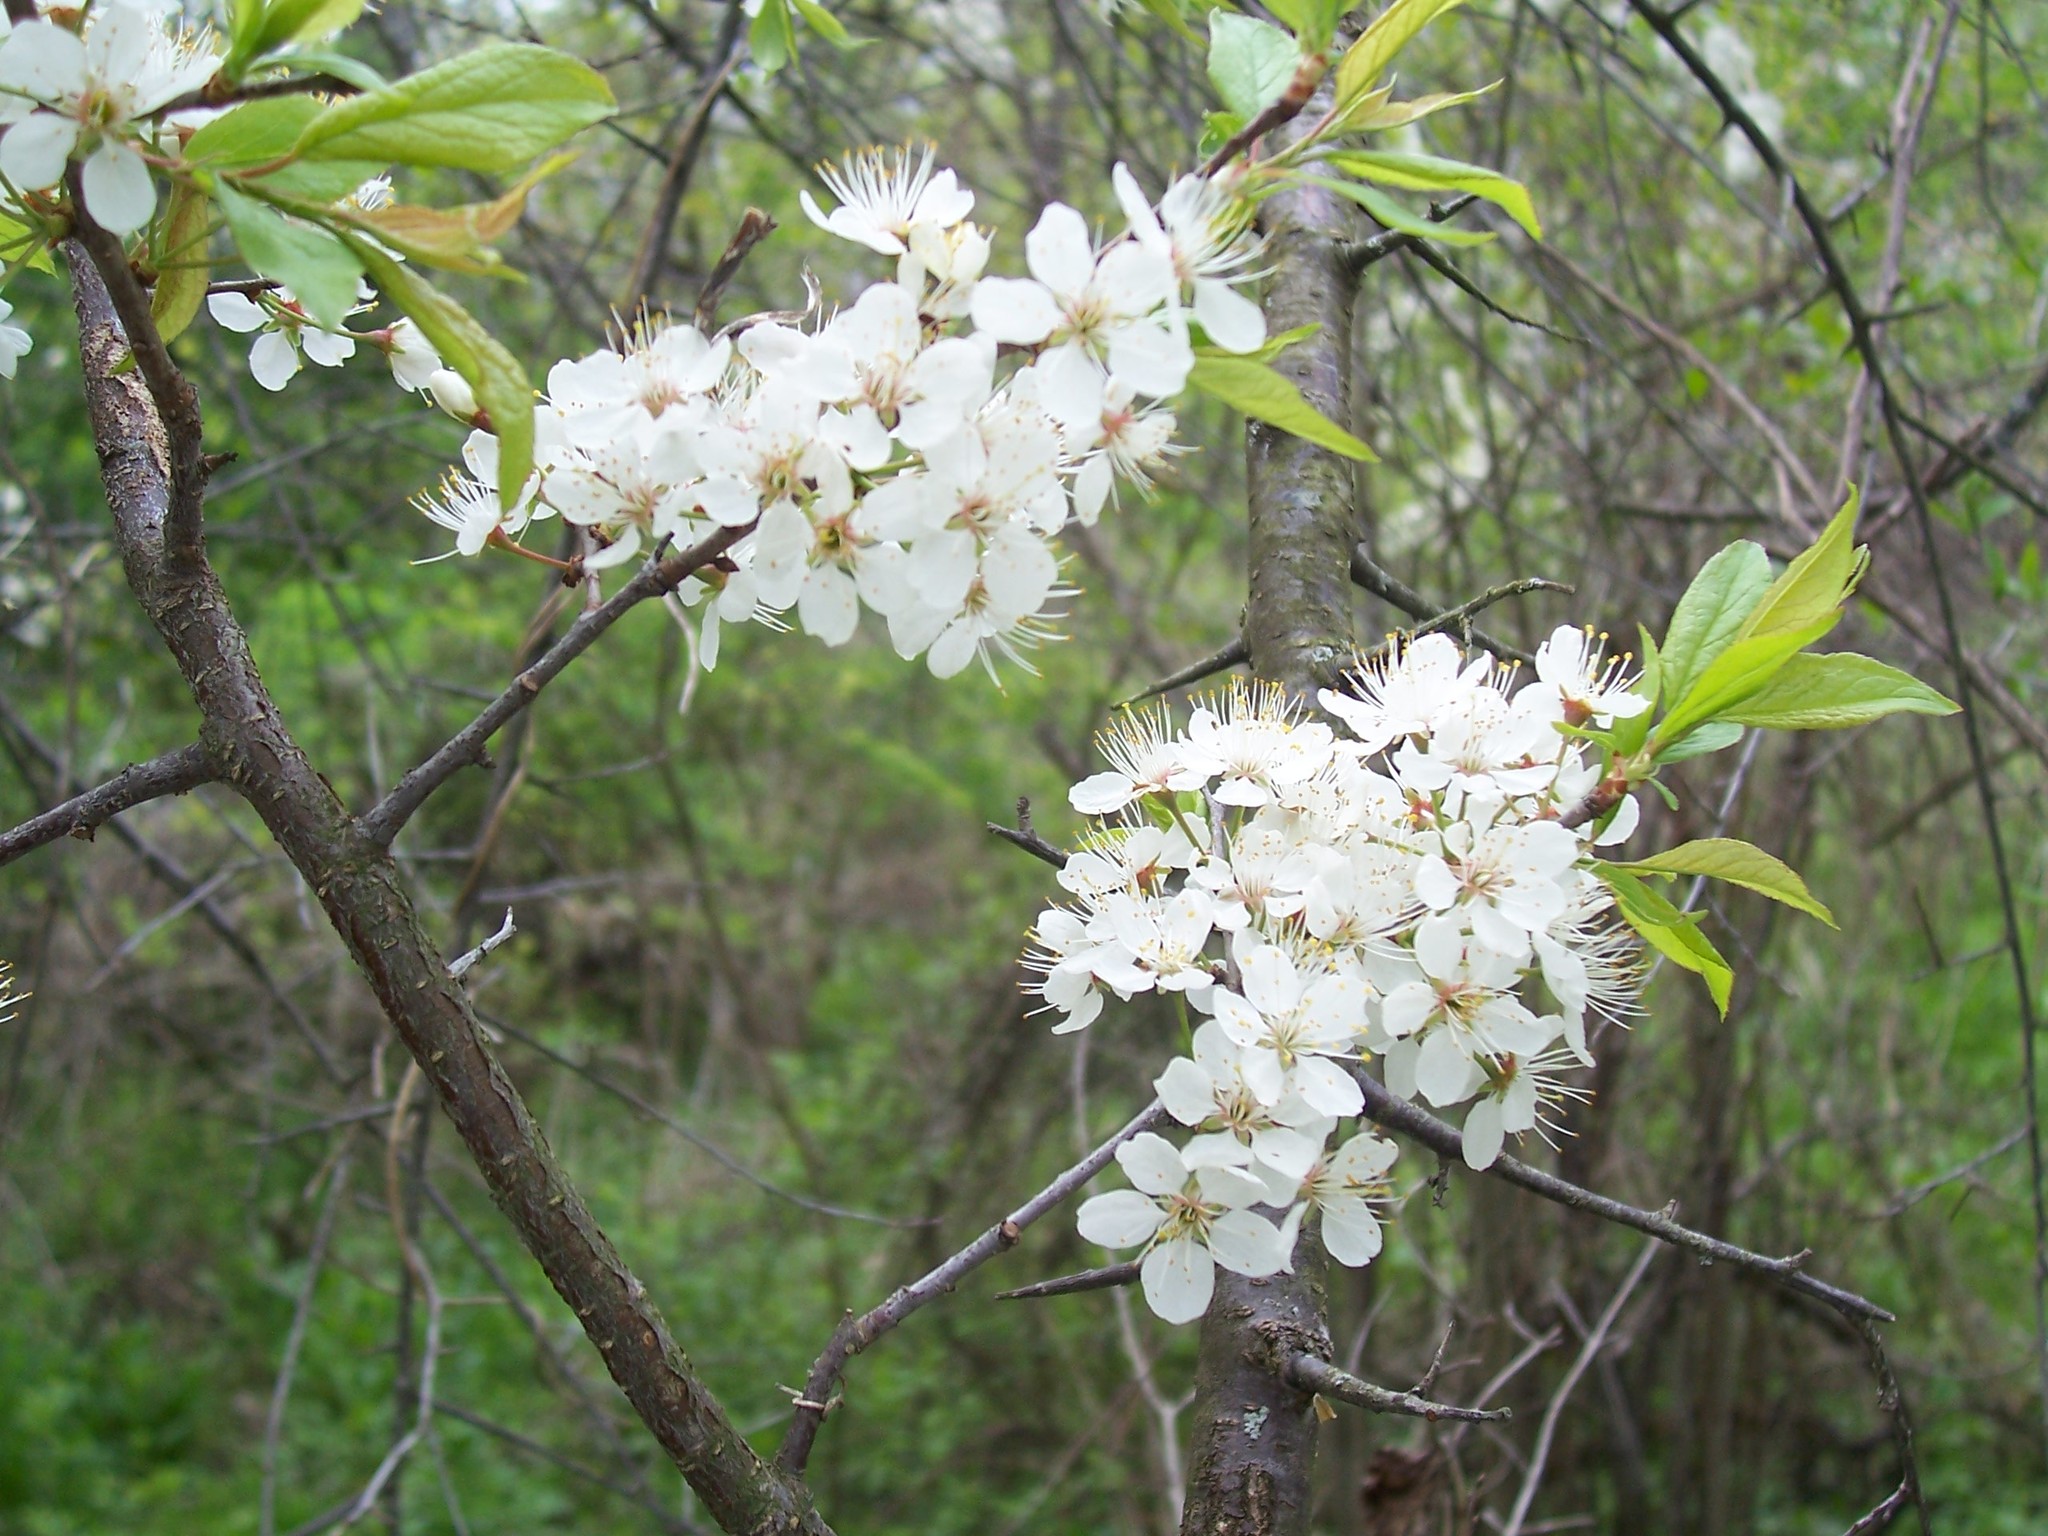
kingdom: Plantae
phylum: Tracheophyta
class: Magnoliopsida
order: Rosales
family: Rosaceae
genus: Prunus
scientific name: Prunus americana
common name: American plum
